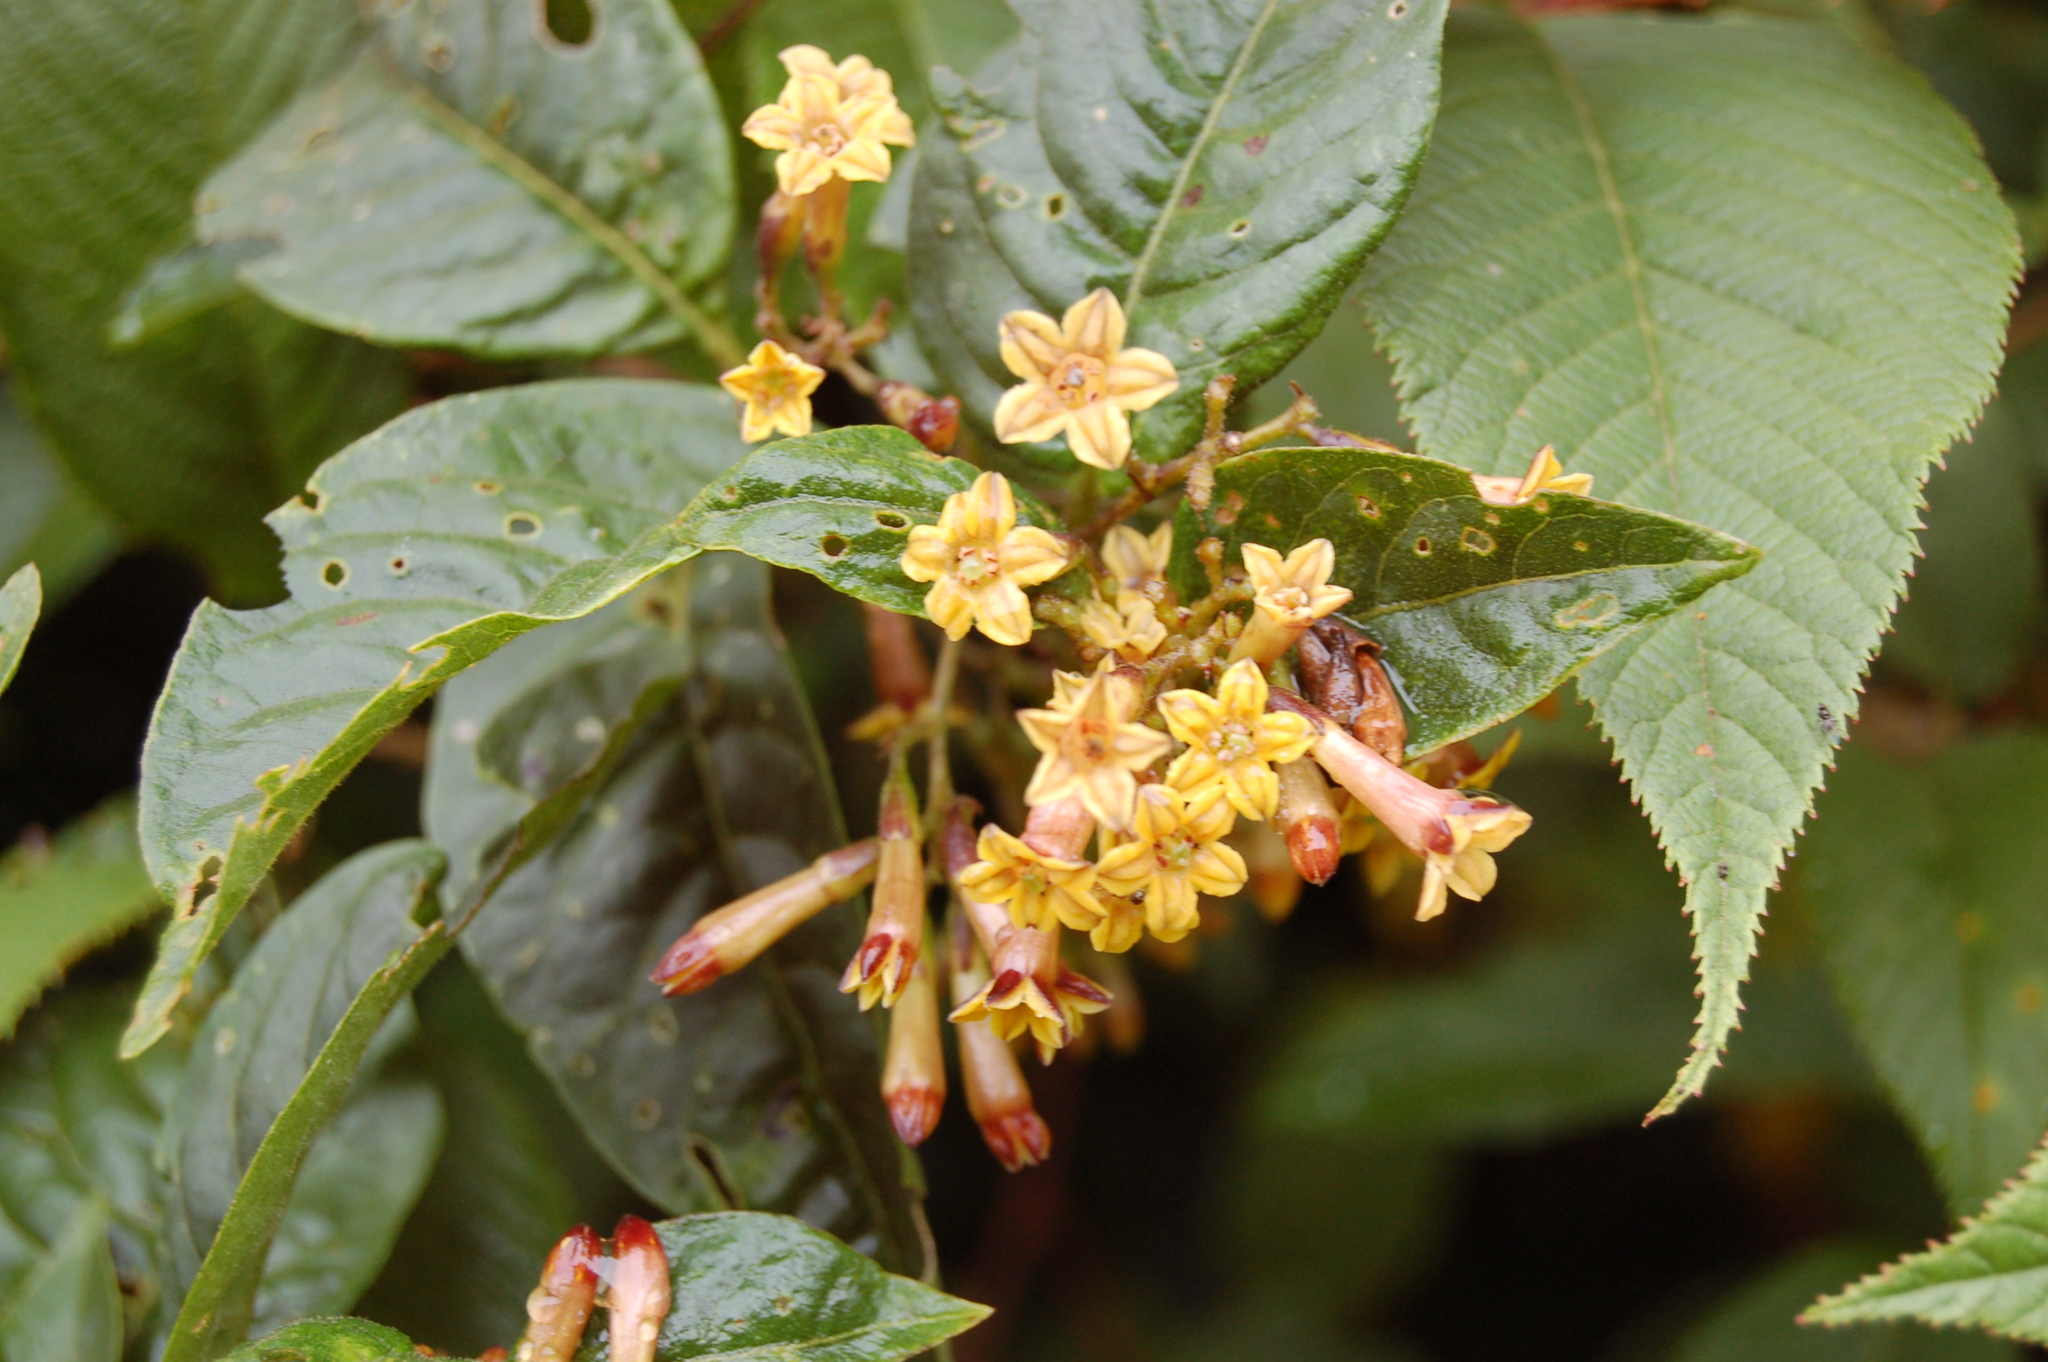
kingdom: Plantae
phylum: Tracheophyta
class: Magnoliopsida
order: Solanales
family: Solanaceae
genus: Cestrum
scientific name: Cestrum aurantiacum
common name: Orange cestrum
